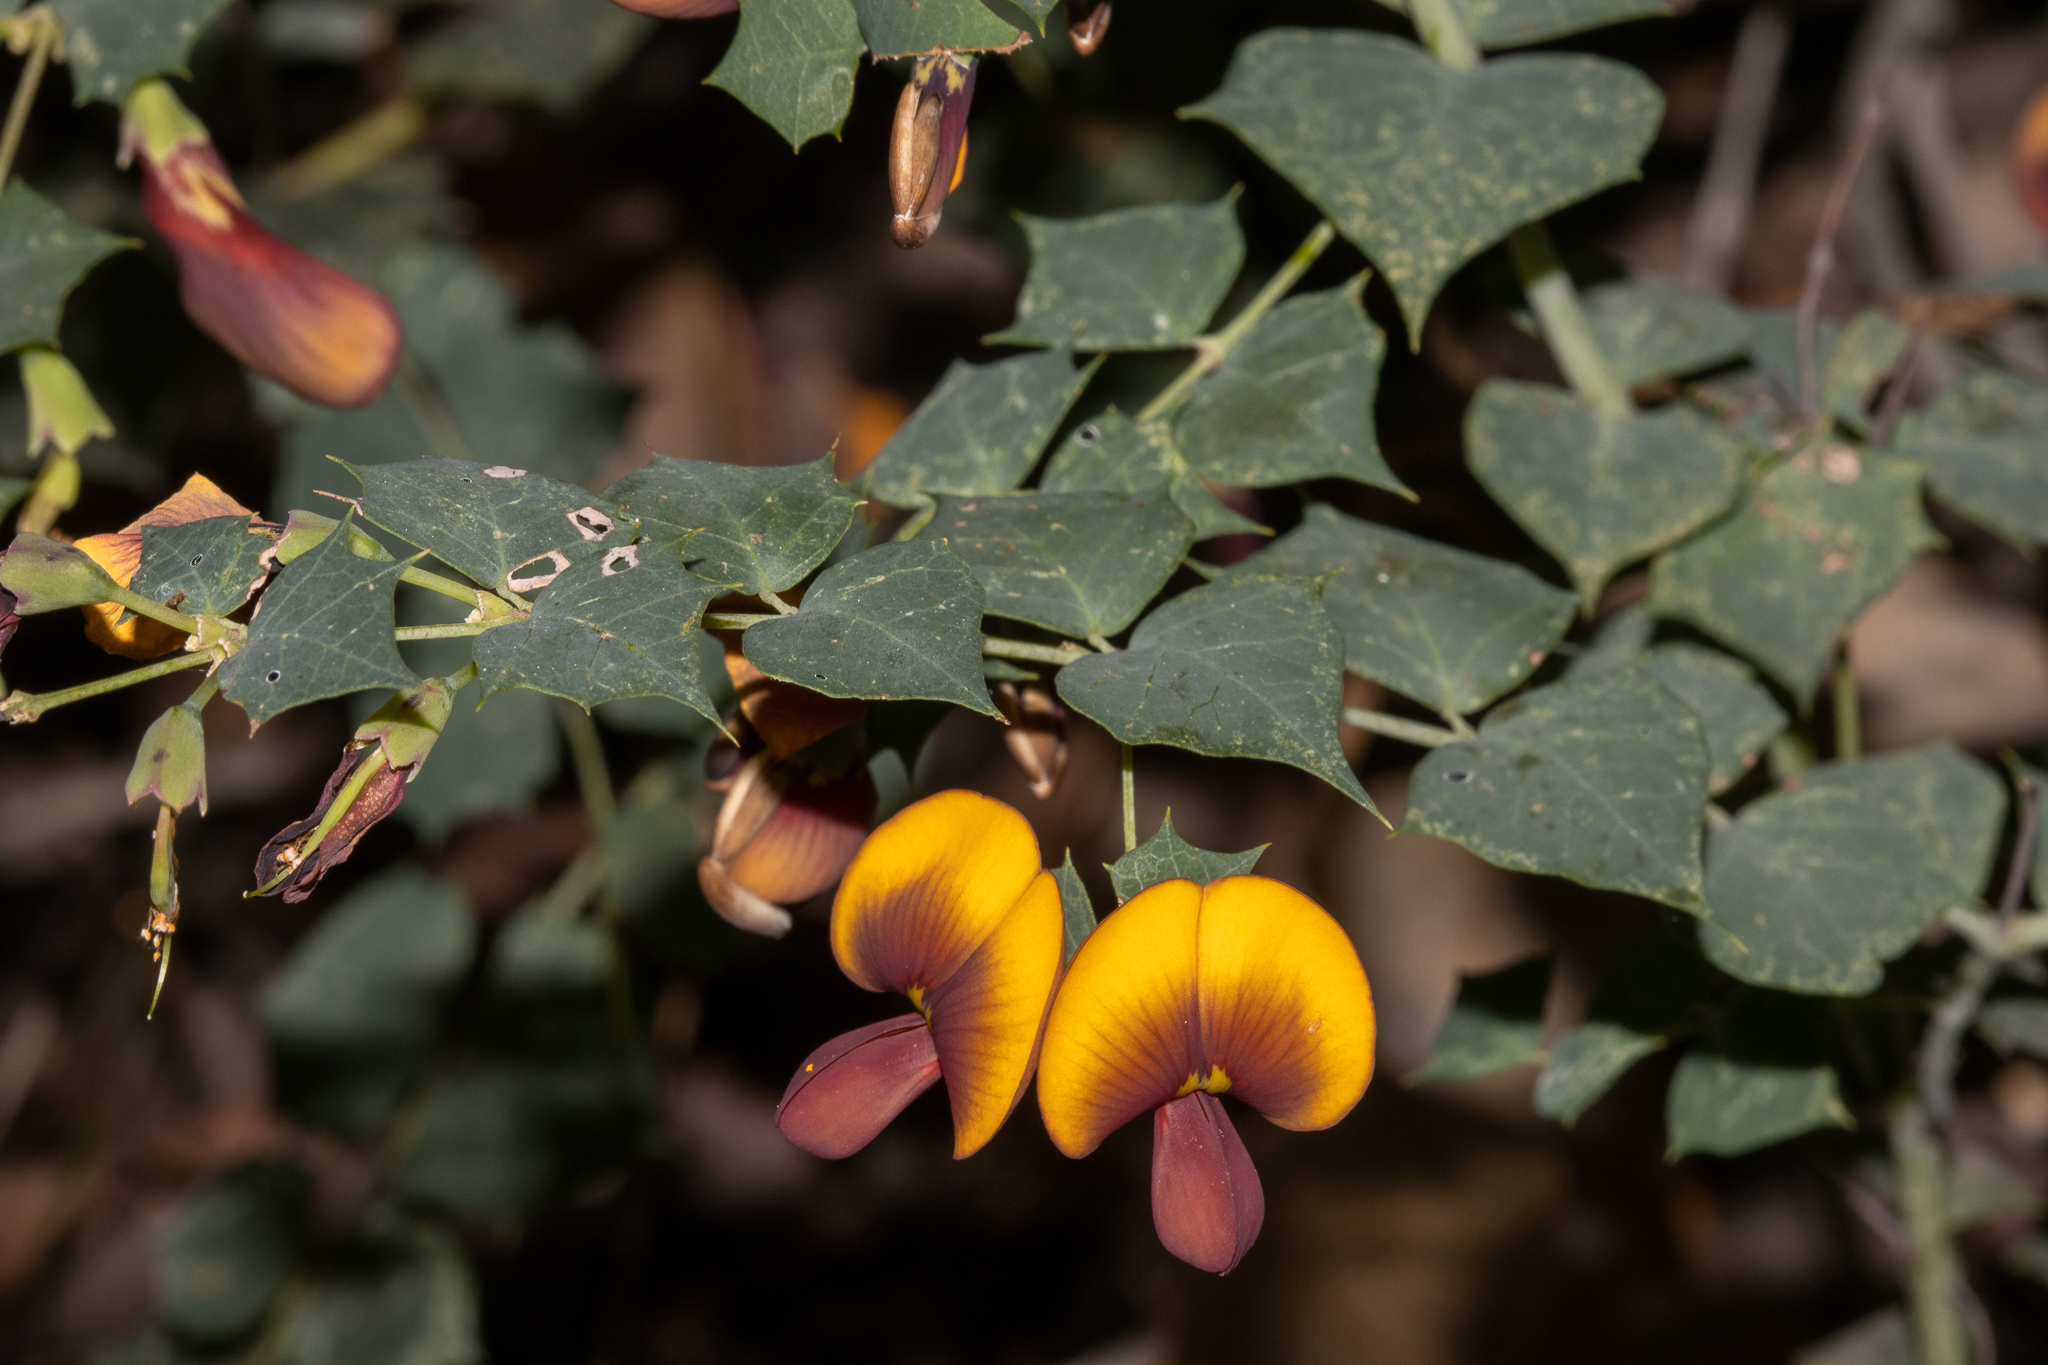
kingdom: Plantae
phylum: Tracheophyta
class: Magnoliopsida
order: Fabales
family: Fabaceae
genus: Bossiaea
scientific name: Bossiaea aquifolium
